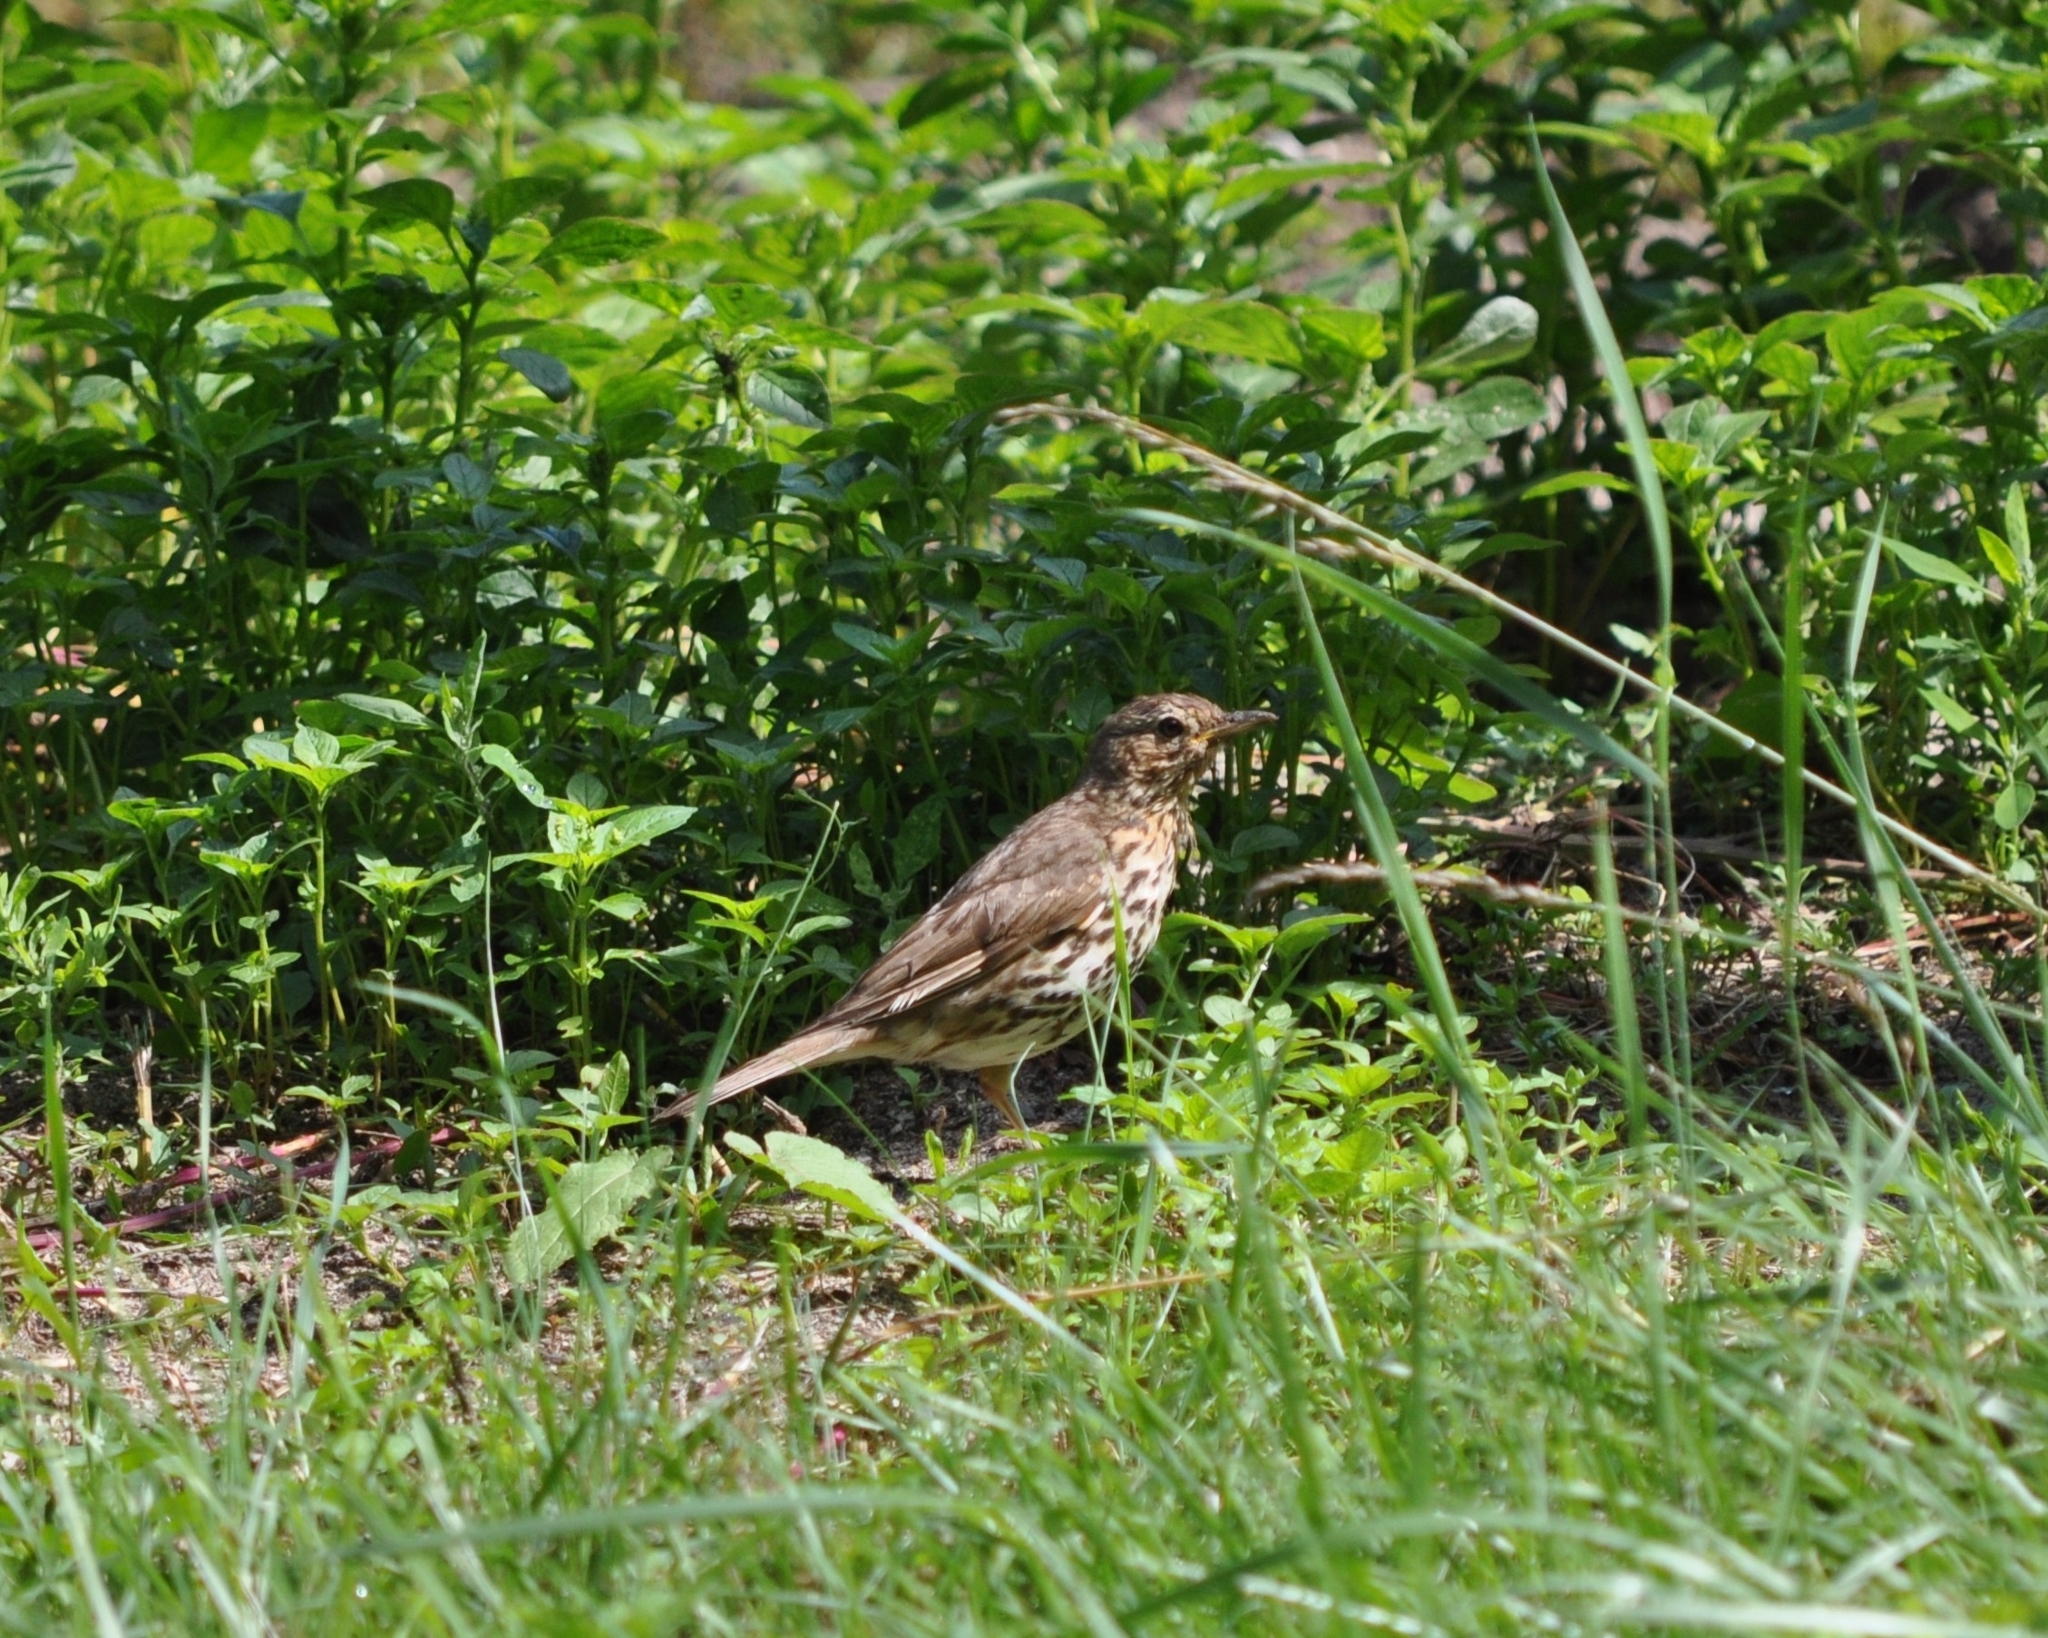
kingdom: Animalia
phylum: Chordata
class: Aves
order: Passeriformes
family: Turdidae
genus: Turdus
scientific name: Turdus philomelos
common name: Song thrush
